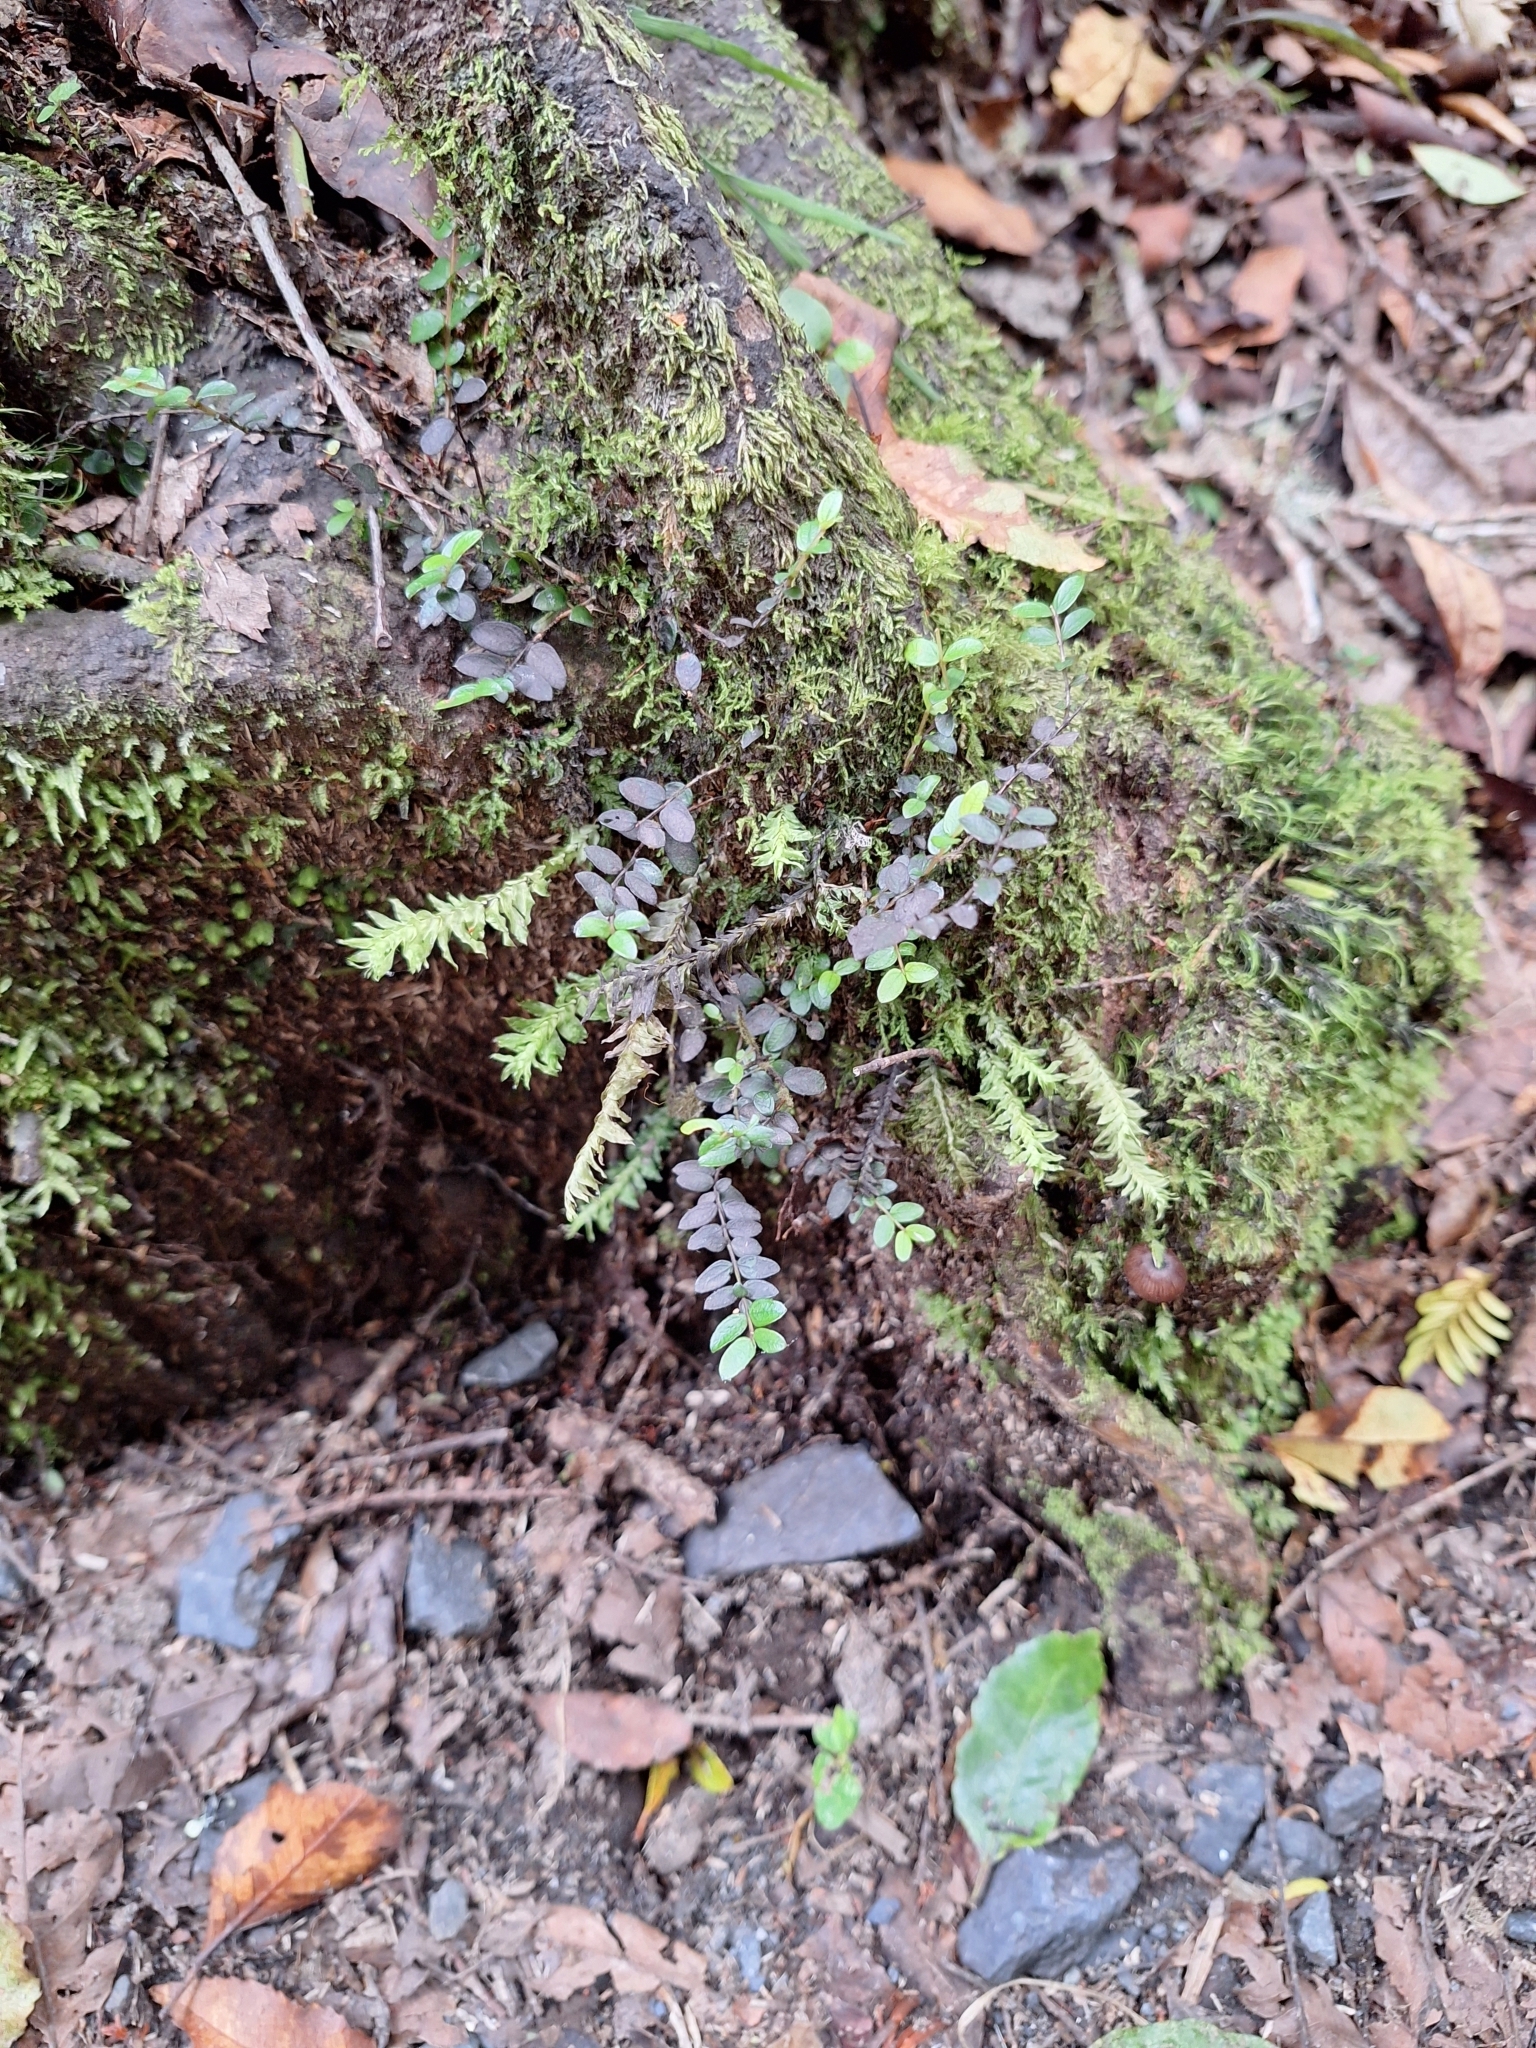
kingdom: Plantae
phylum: Bryophyta
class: Bryopsida
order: Hypopterygiales
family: Hypopterygiaceae
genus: Cyathophorum
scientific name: Cyathophorum bulbosum
